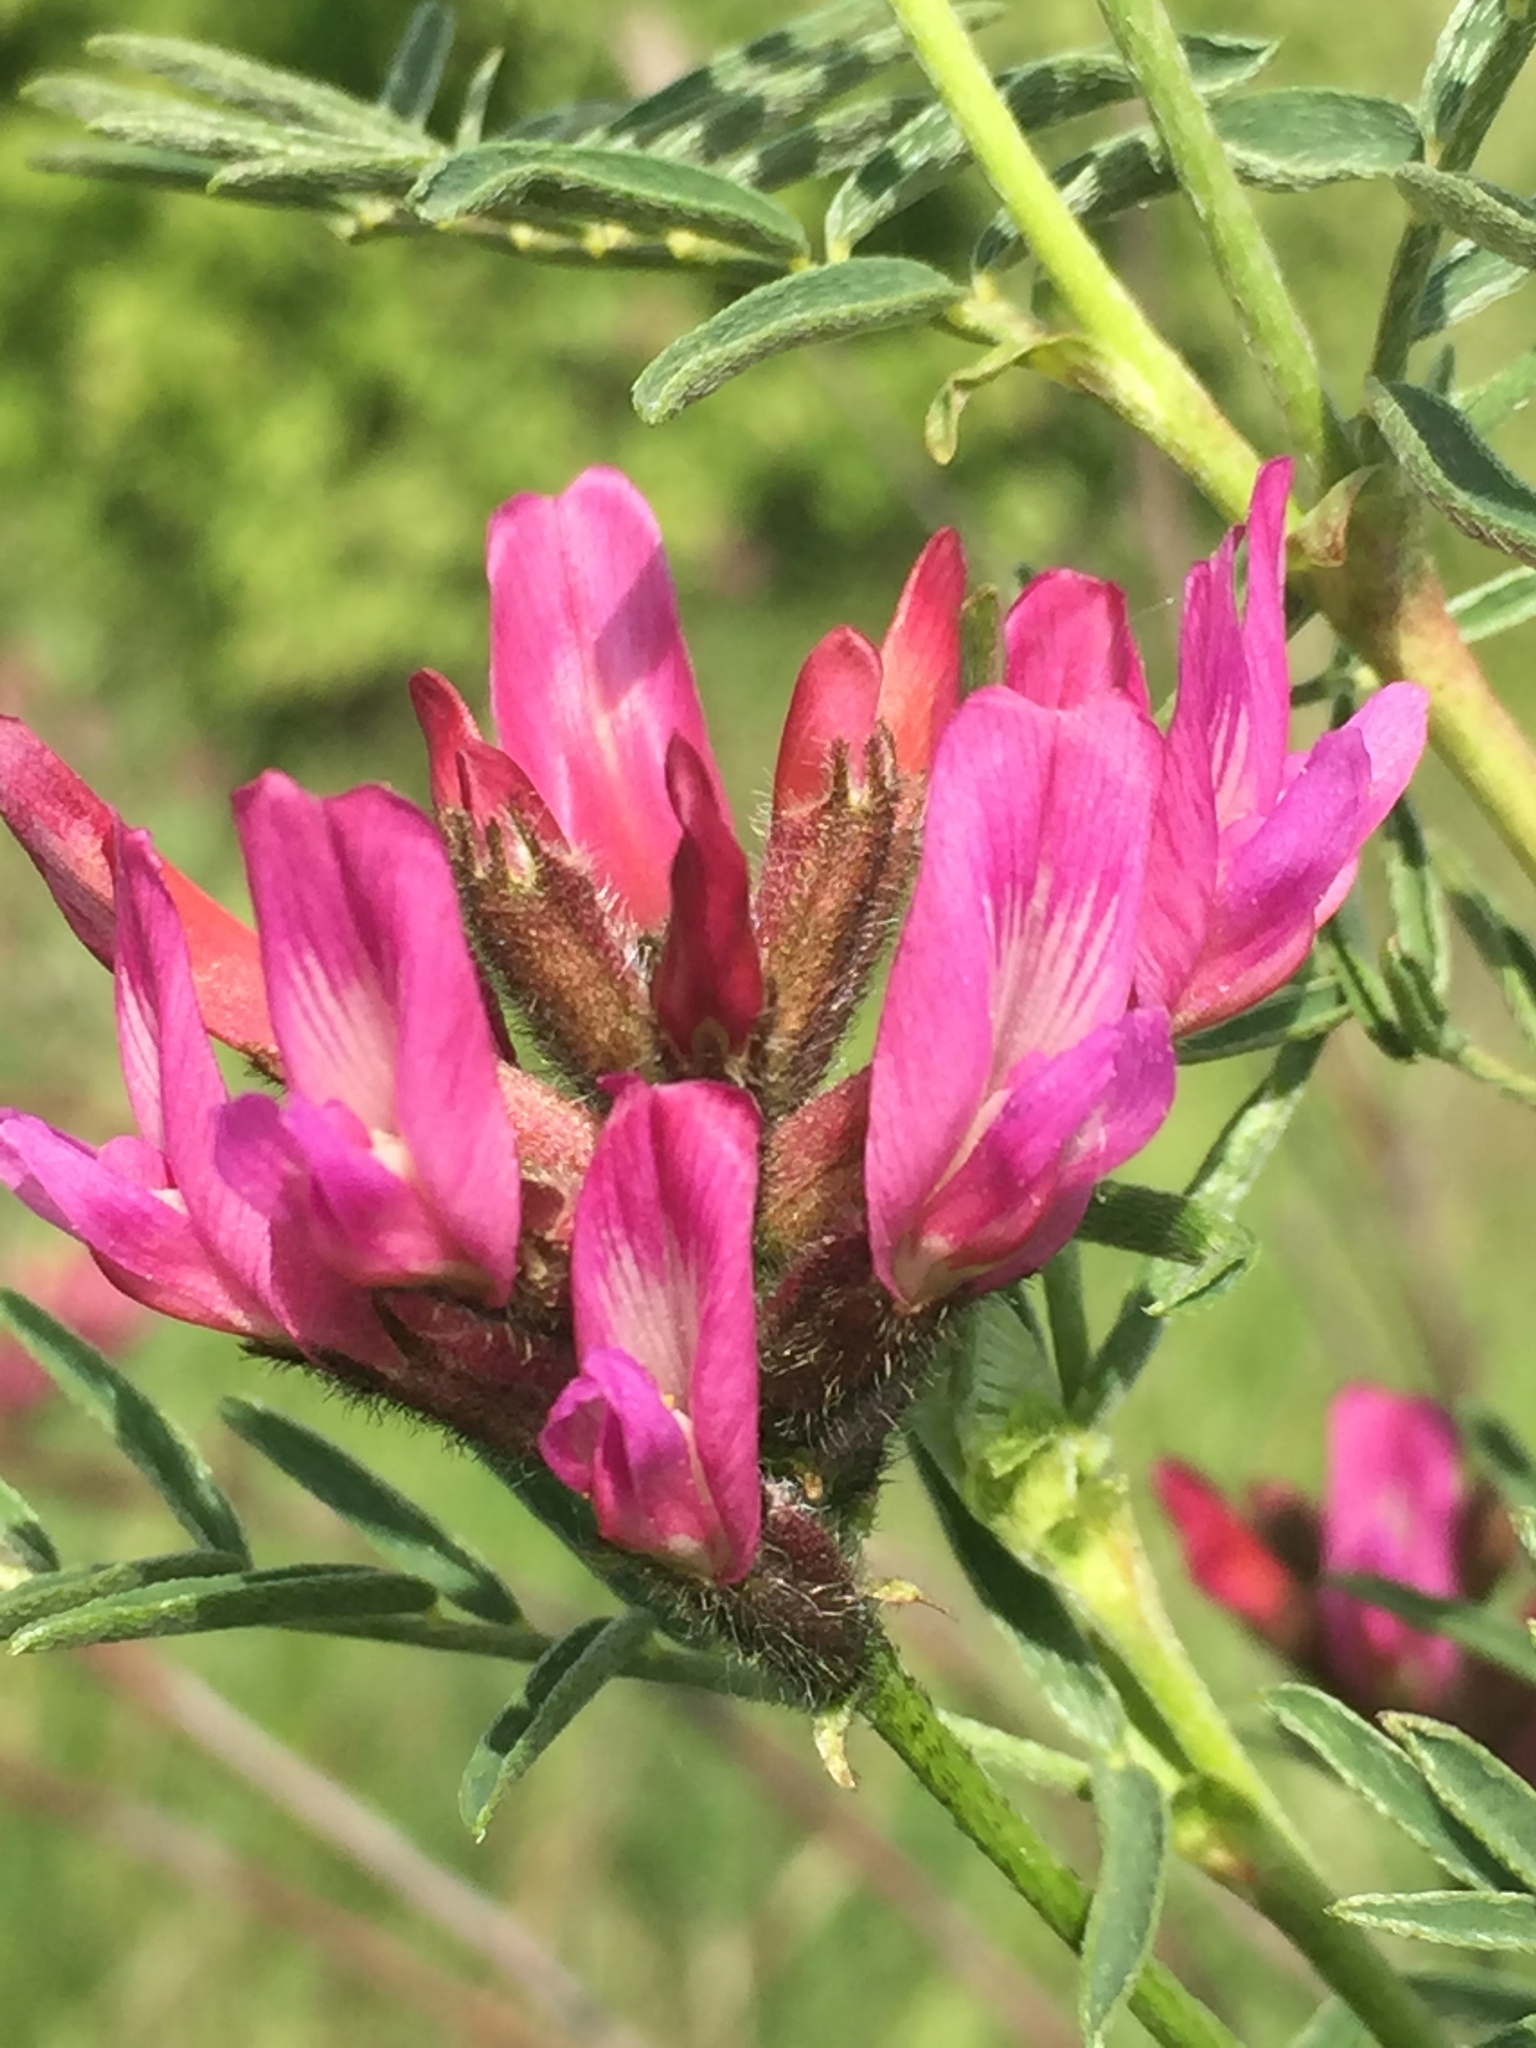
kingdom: Plantae
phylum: Tracheophyta
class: Magnoliopsida
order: Fabales
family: Fabaceae
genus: Astragalus
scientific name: Astragalus cornutus
